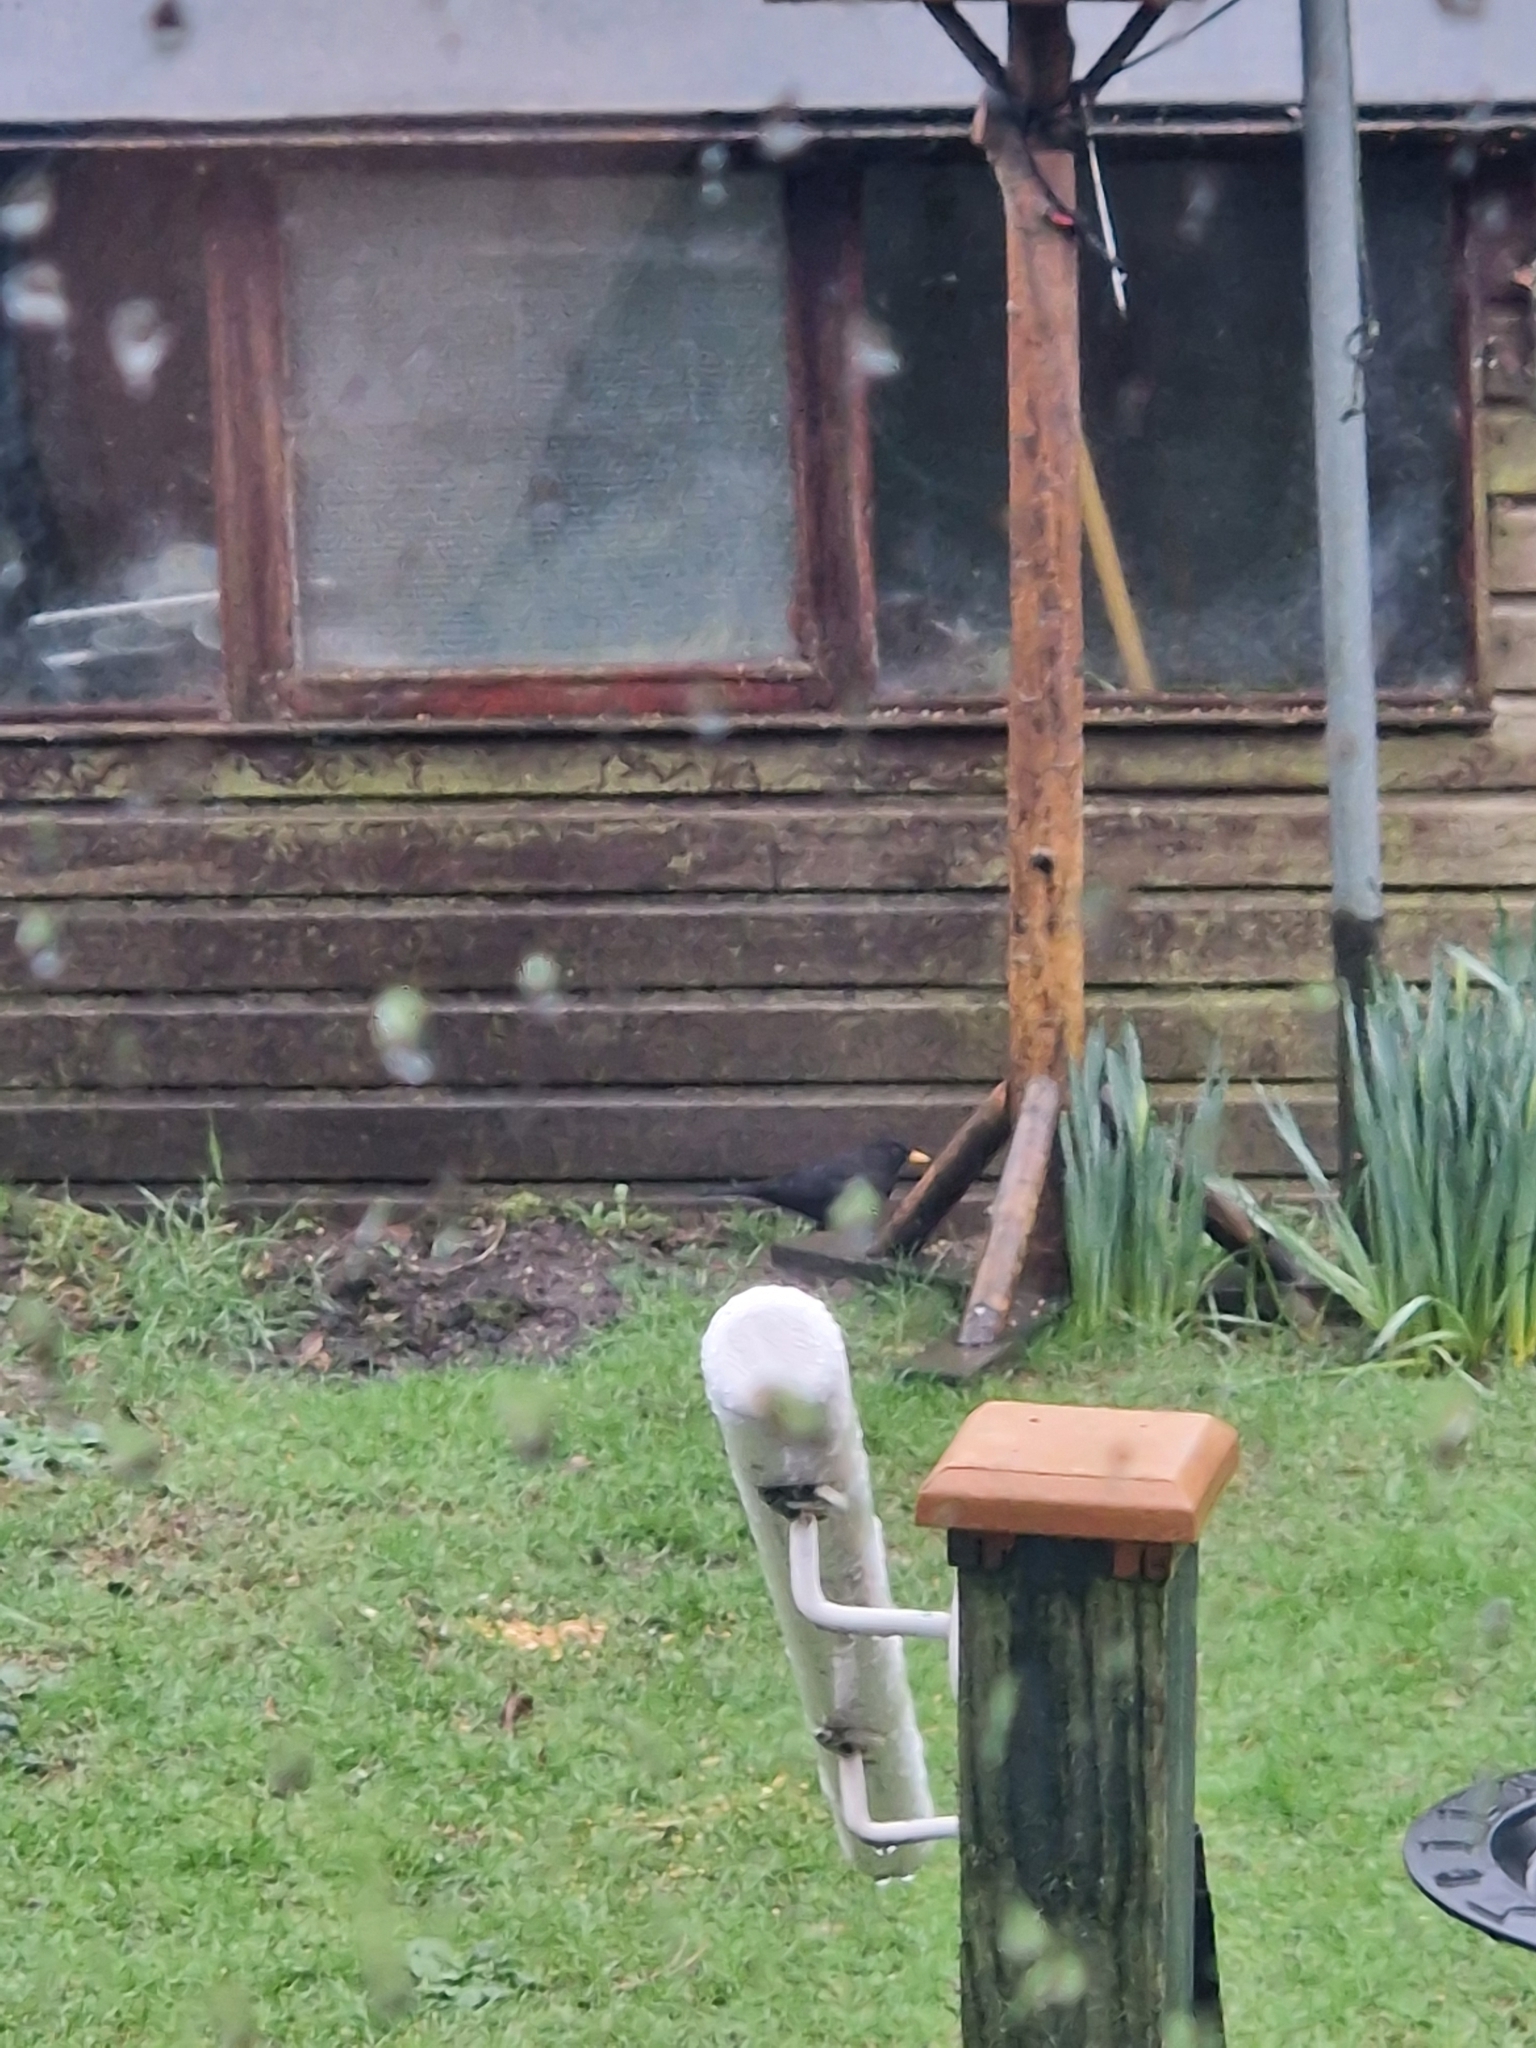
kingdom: Animalia
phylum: Chordata
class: Aves
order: Passeriformes
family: Turdidae
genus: Turdus
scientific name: Turdus merula
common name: Common blackbird
